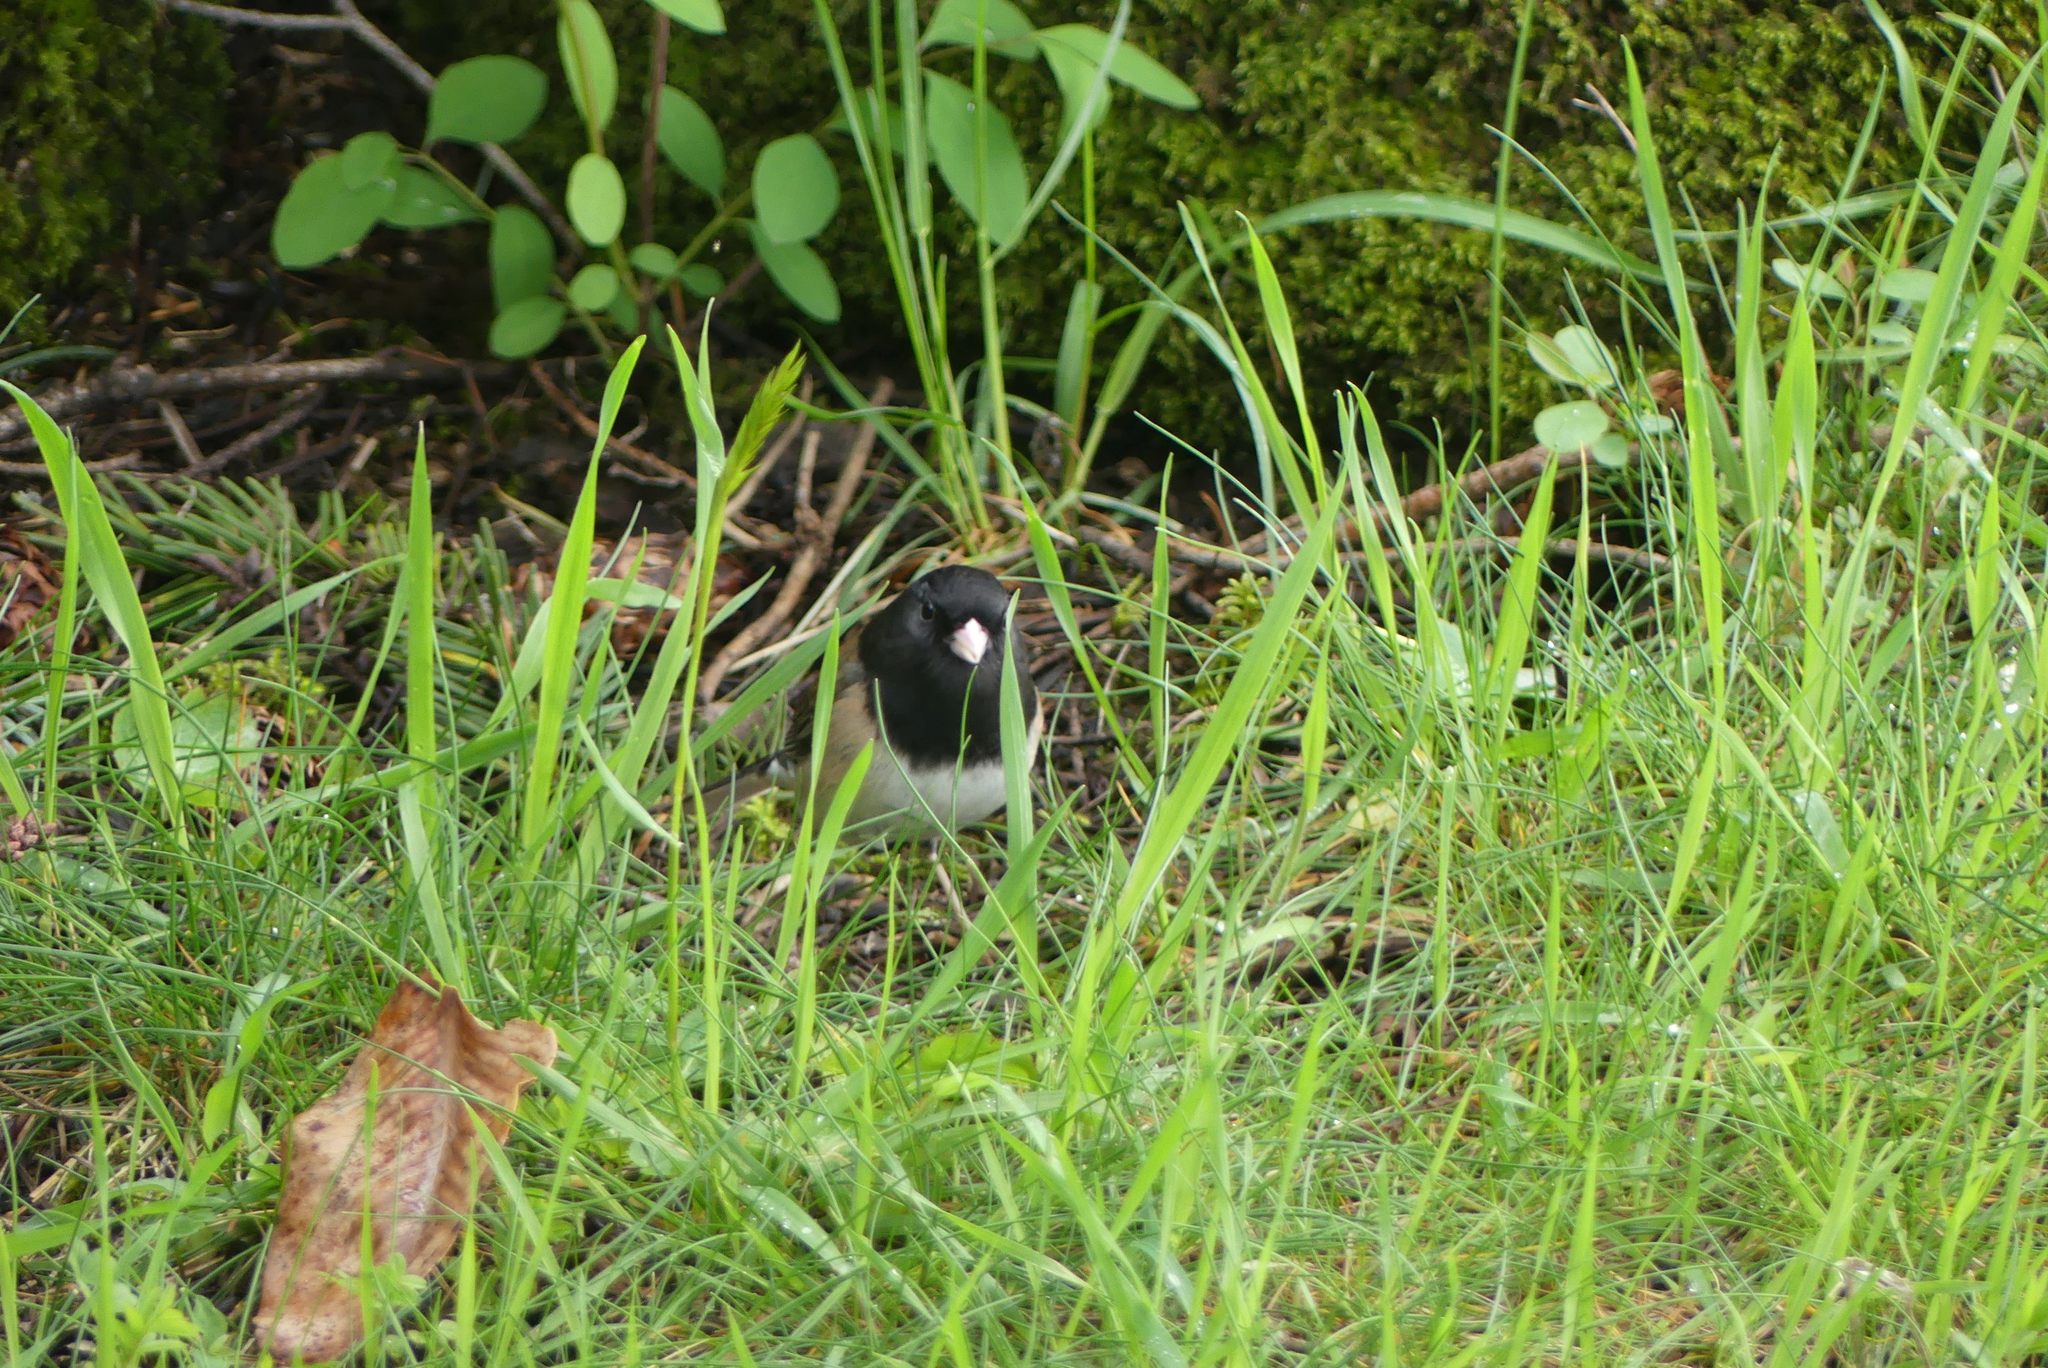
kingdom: Animalia
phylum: Chordata
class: Aves
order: Passeriformes
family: Passerellidae
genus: Junco
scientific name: Junco hyemalis
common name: Dark-eyed junco
